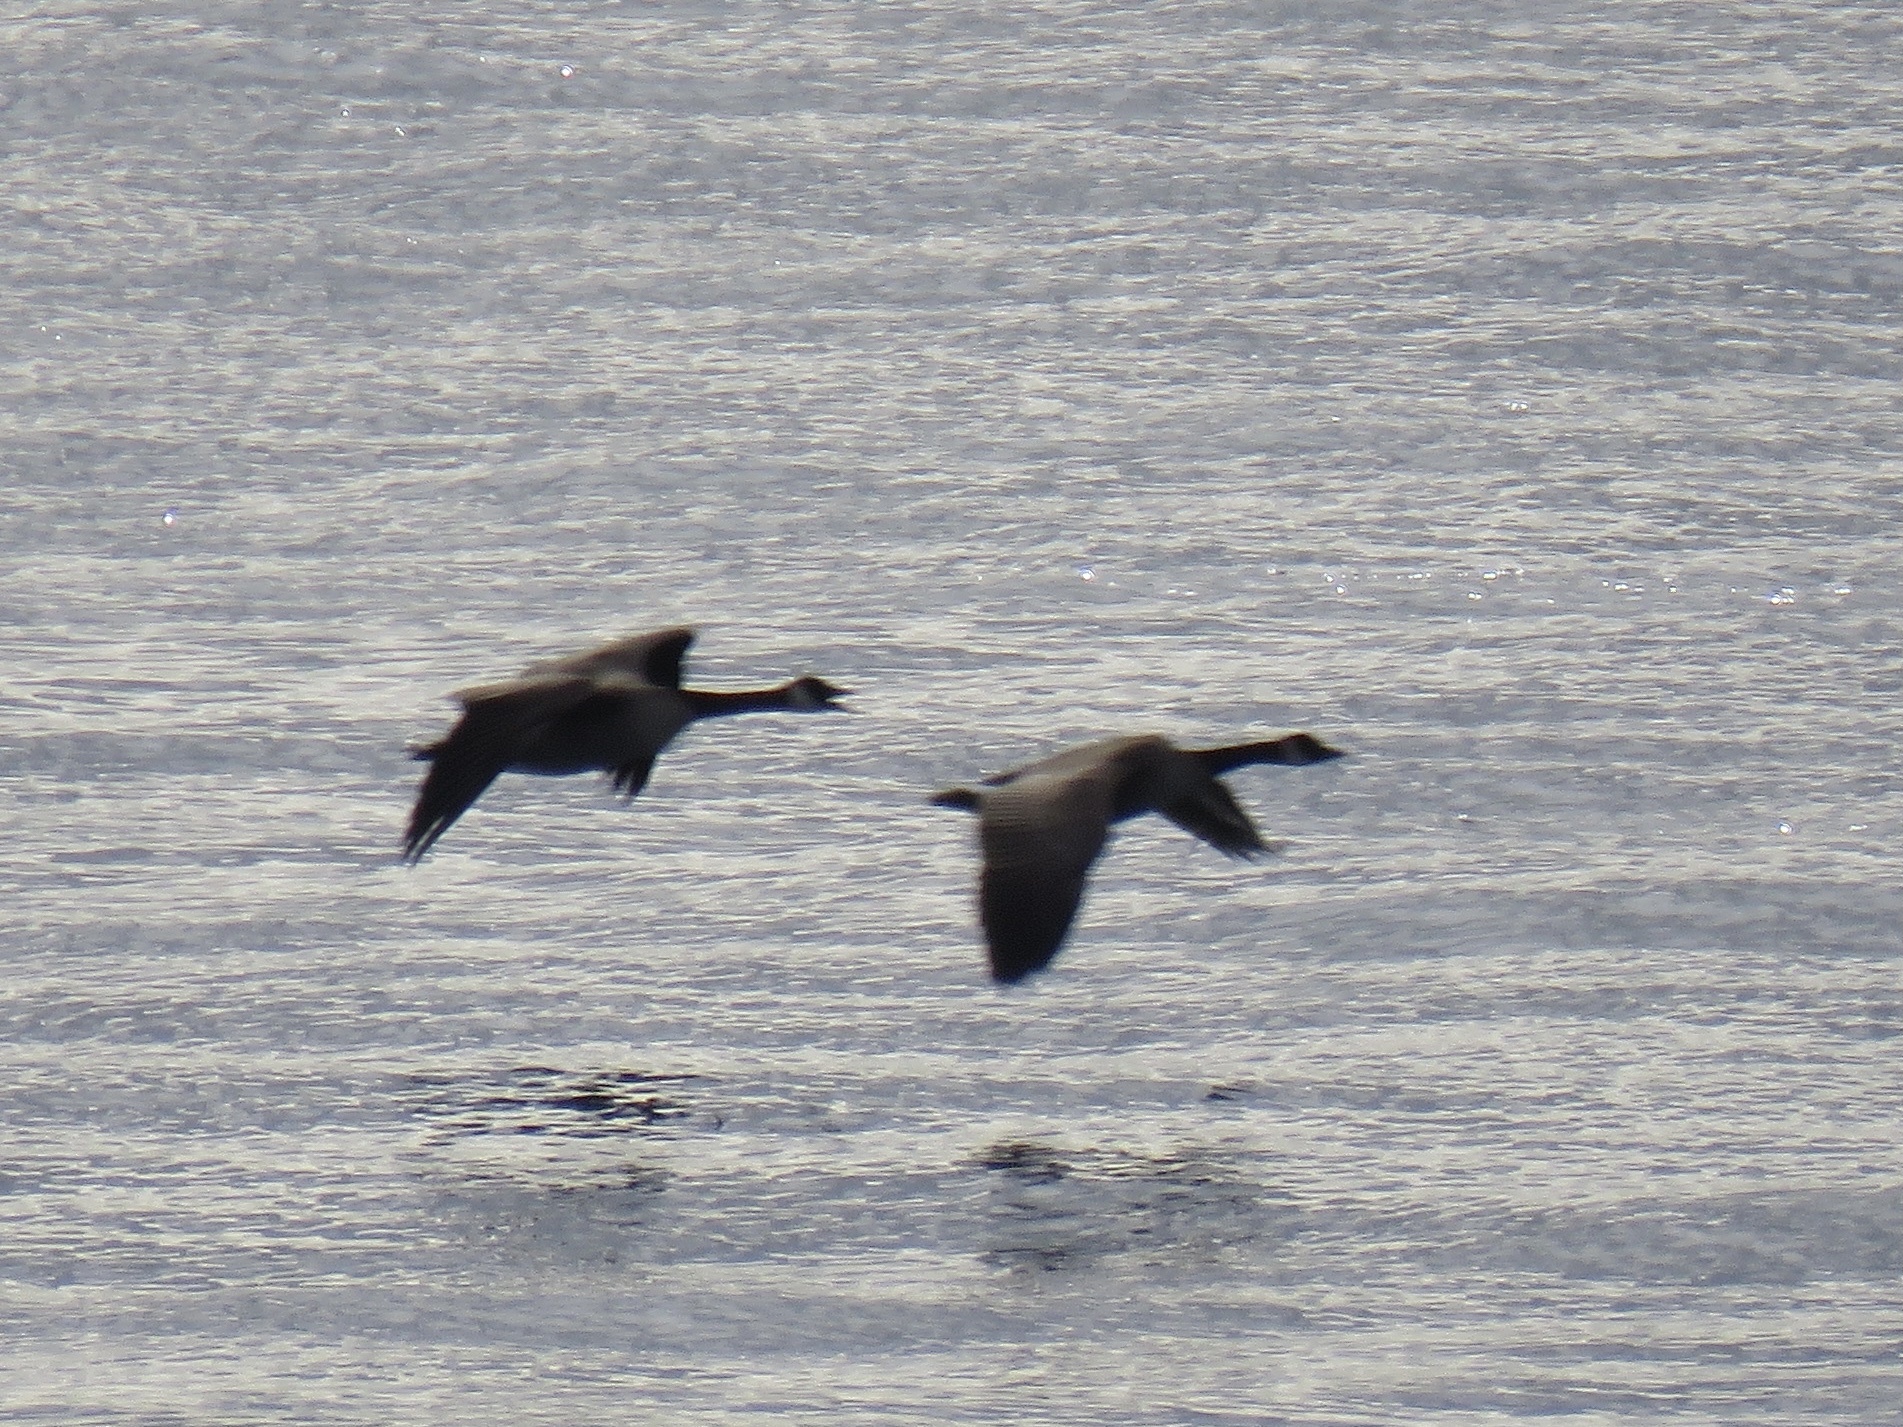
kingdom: Animalia
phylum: Chordata
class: Aves
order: Anseriformes
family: Anatidae
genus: Branta
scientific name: Branta canadensis
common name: Canada goose
